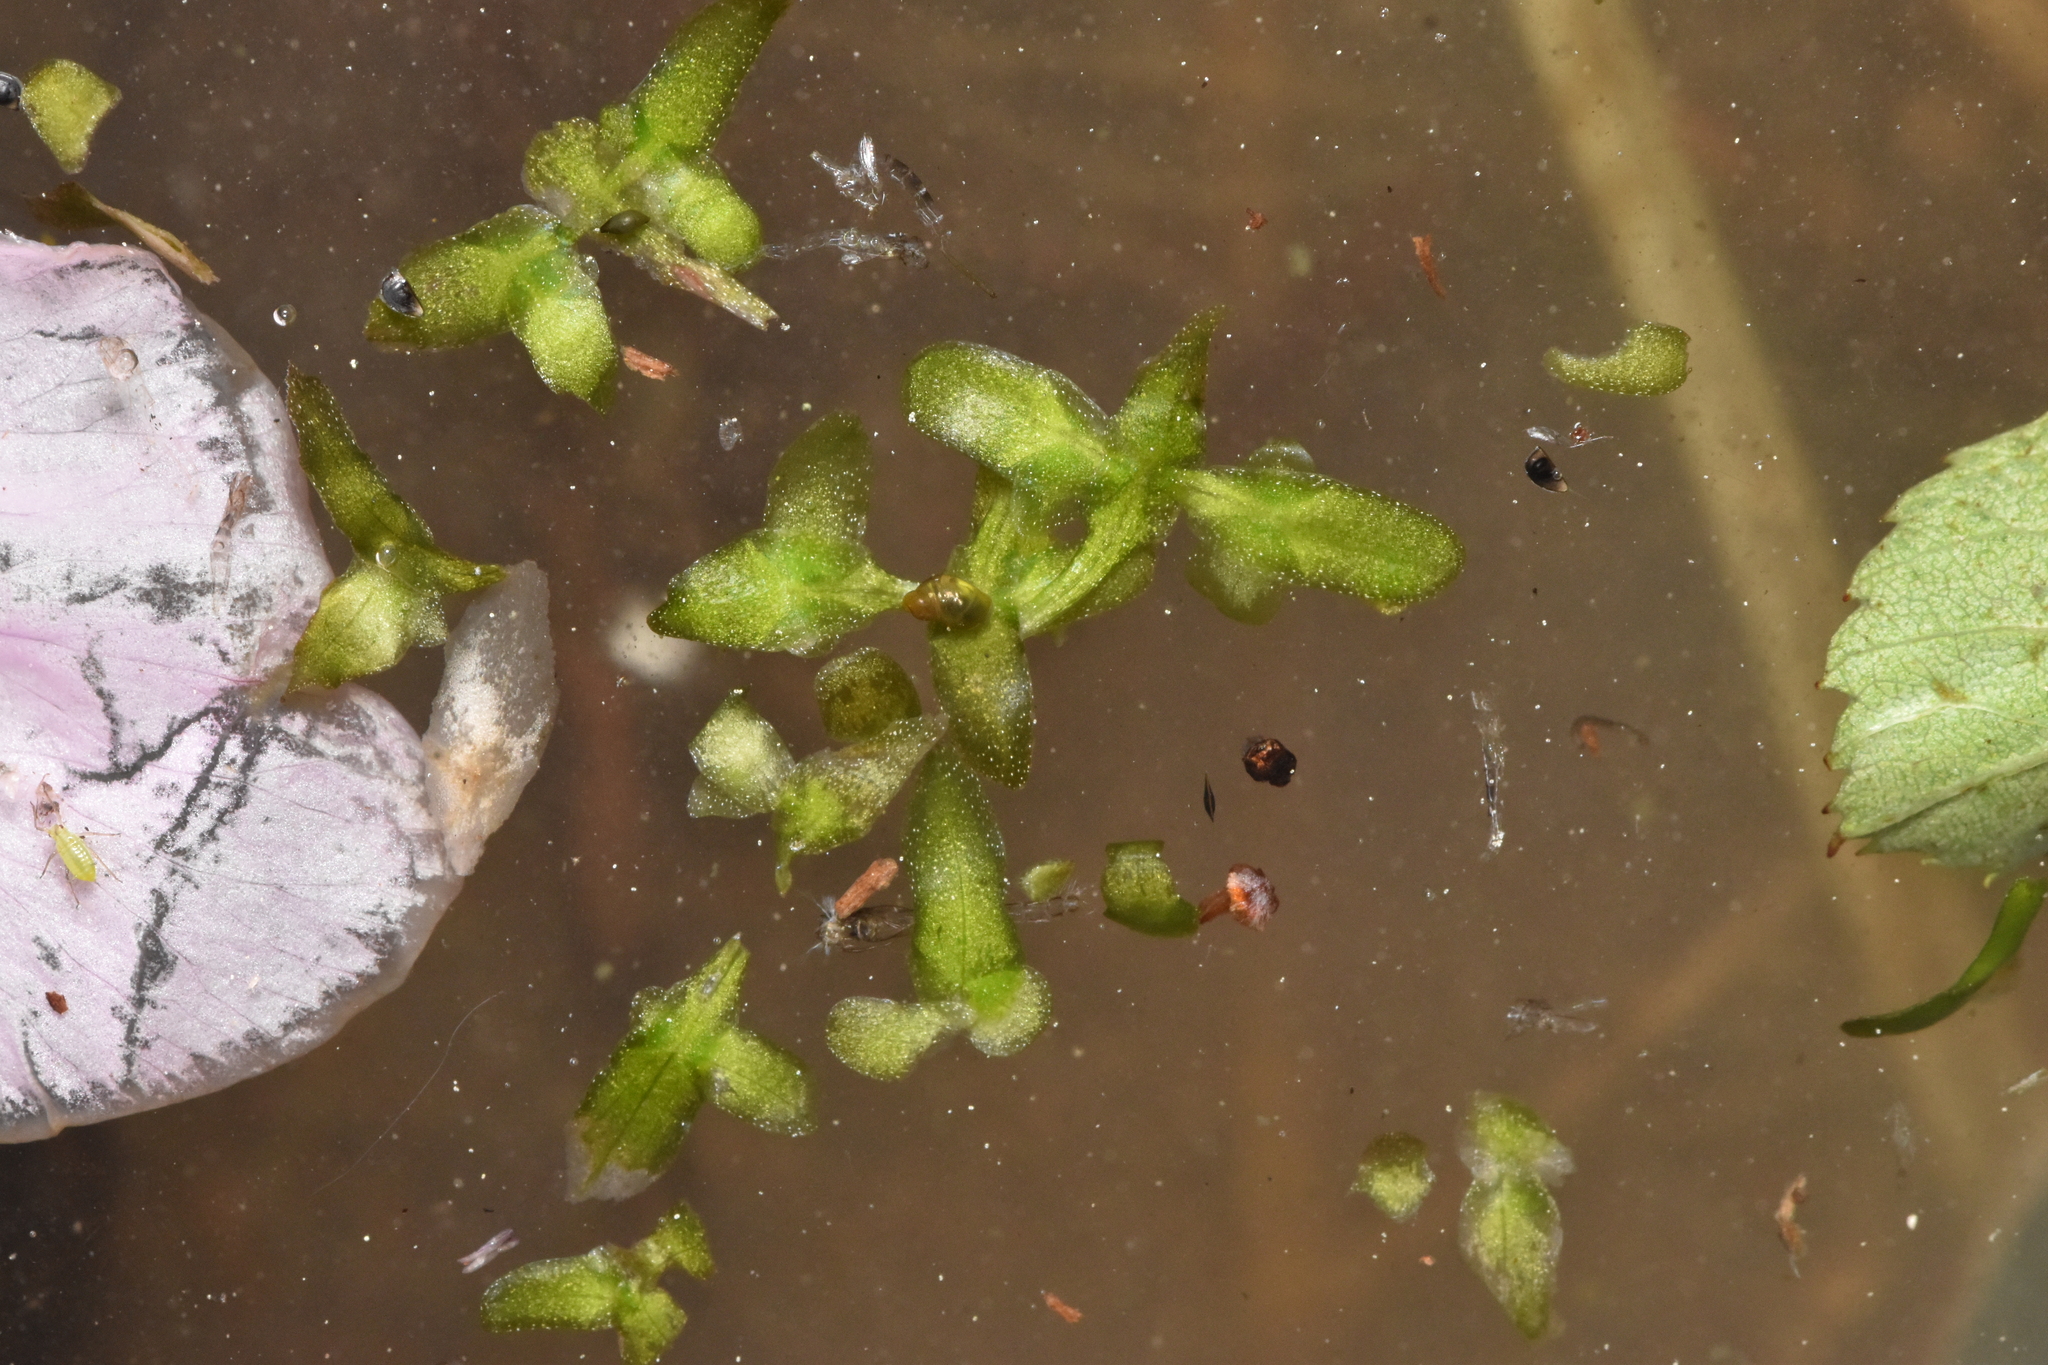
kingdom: Plantae
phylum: Tracheophyta
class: Liliopsida
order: Alismatales
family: Araceae
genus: Lemna
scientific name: Lemna trisulca
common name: Ivy-leaved duckweed
